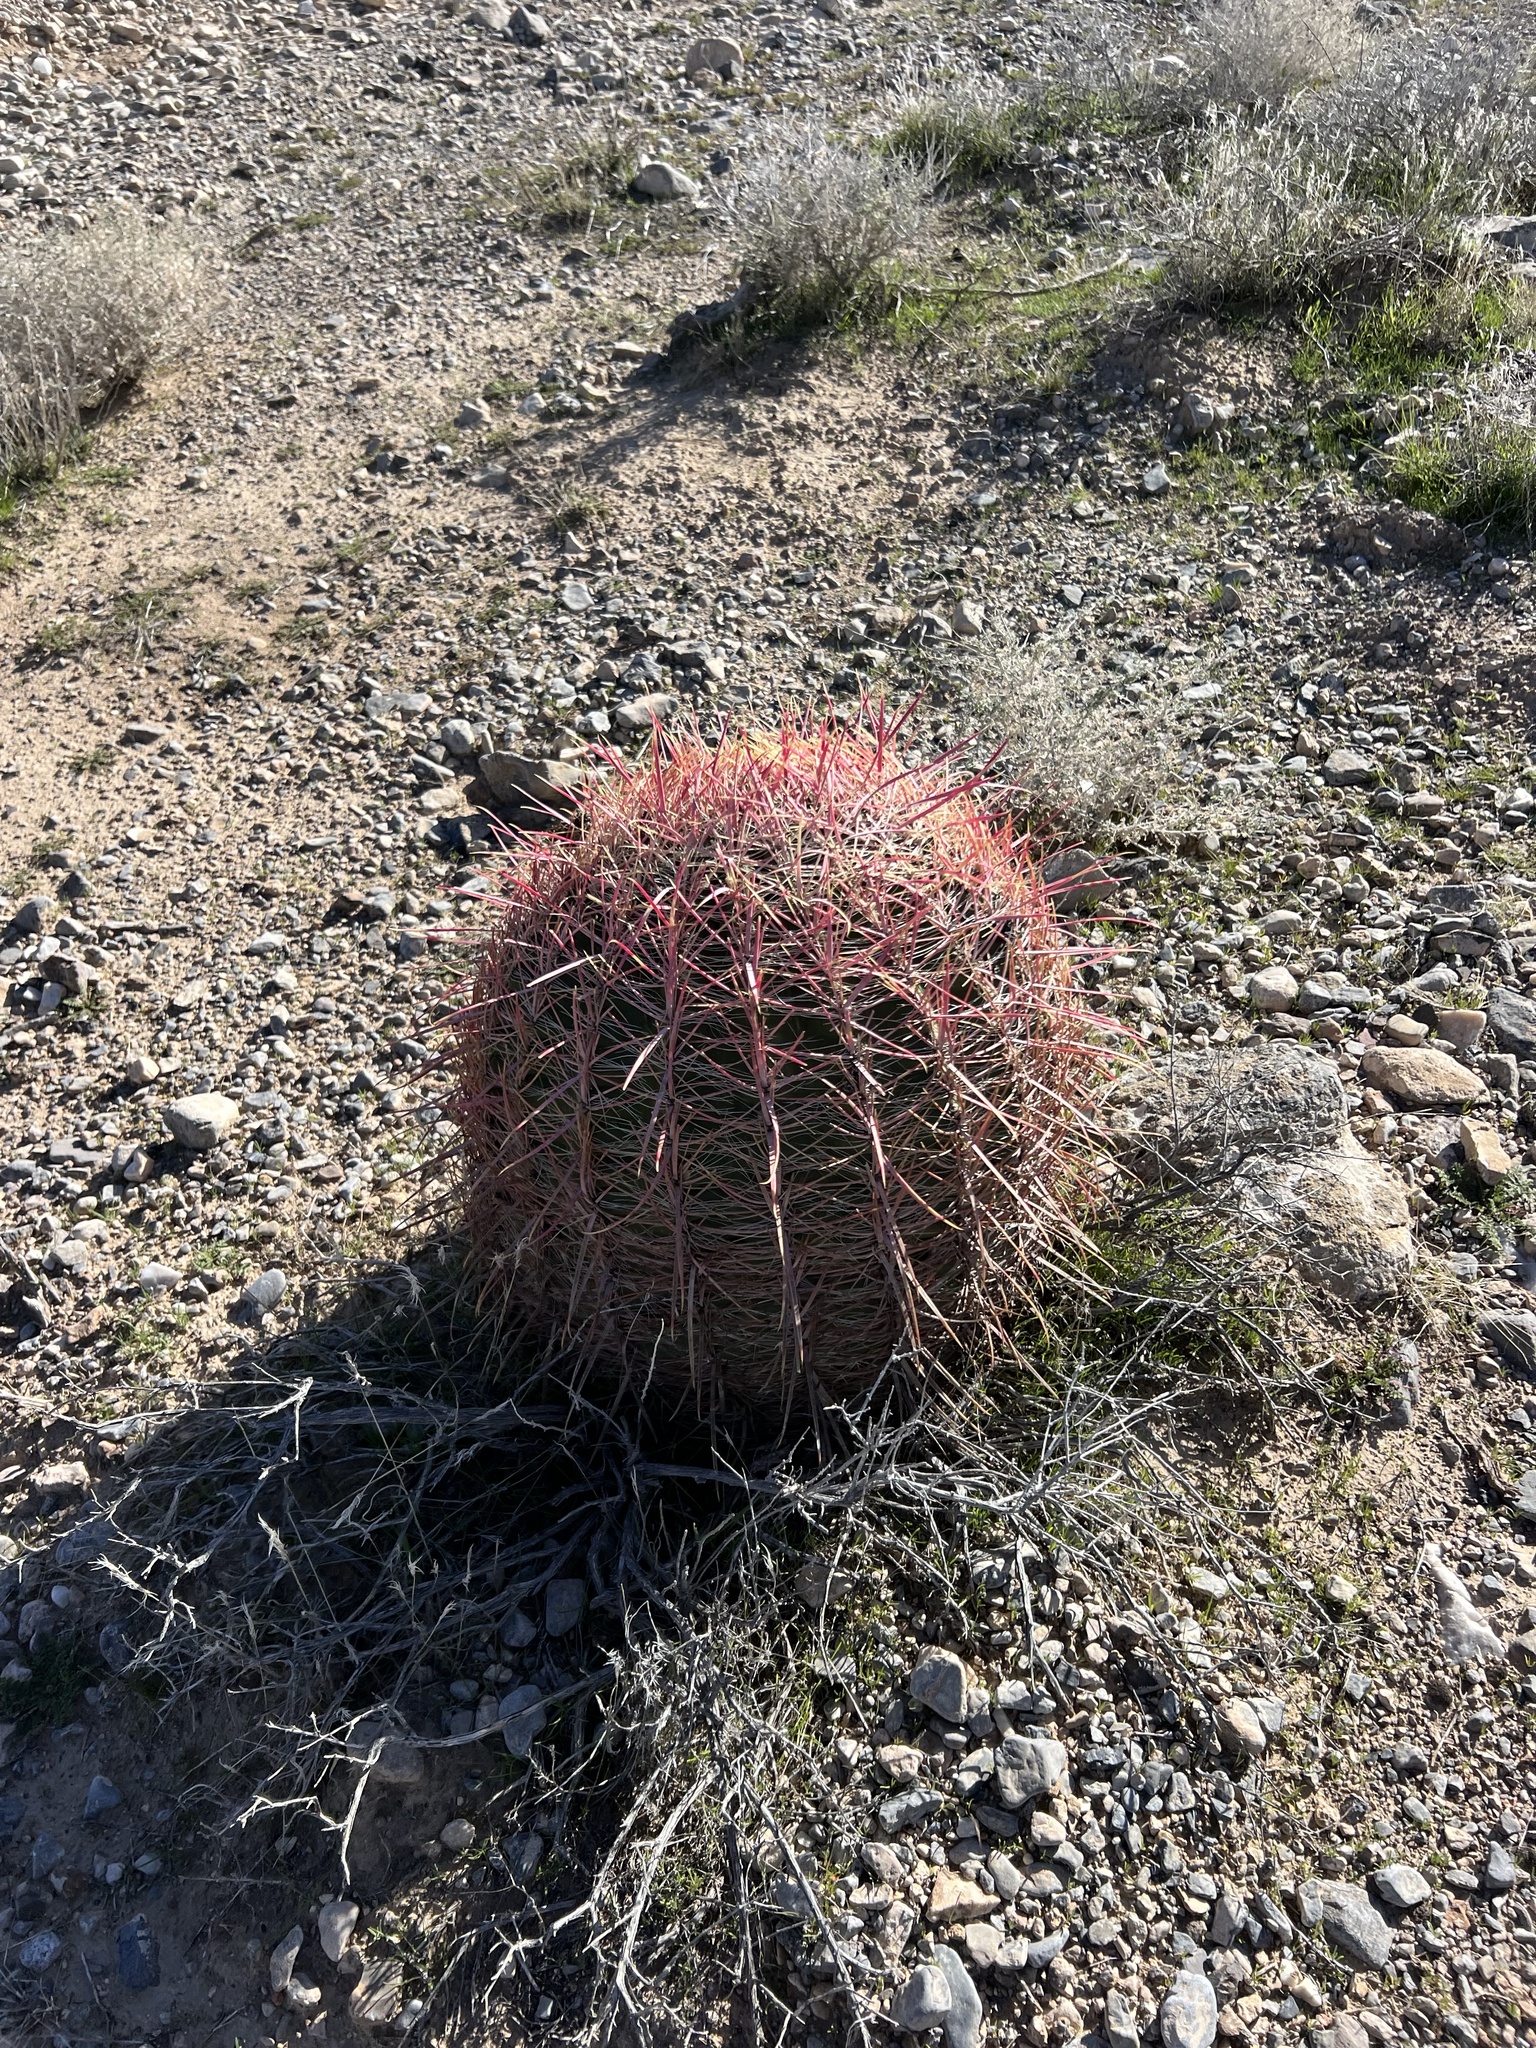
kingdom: Plantae
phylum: Tracheophyta
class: Magnoliopsida
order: Caryophyllales
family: Cactaceae
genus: Ferocactus
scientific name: Ferocactus cylindraceus
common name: California barrel cactus
